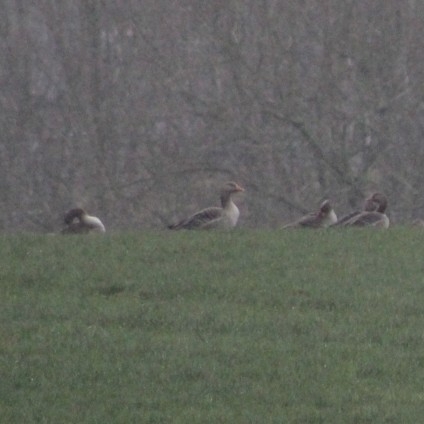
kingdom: Animalia
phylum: Chordata
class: Aves
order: Anseriformes
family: Anatidae
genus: Anser
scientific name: Anser anser
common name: Greylag goose
